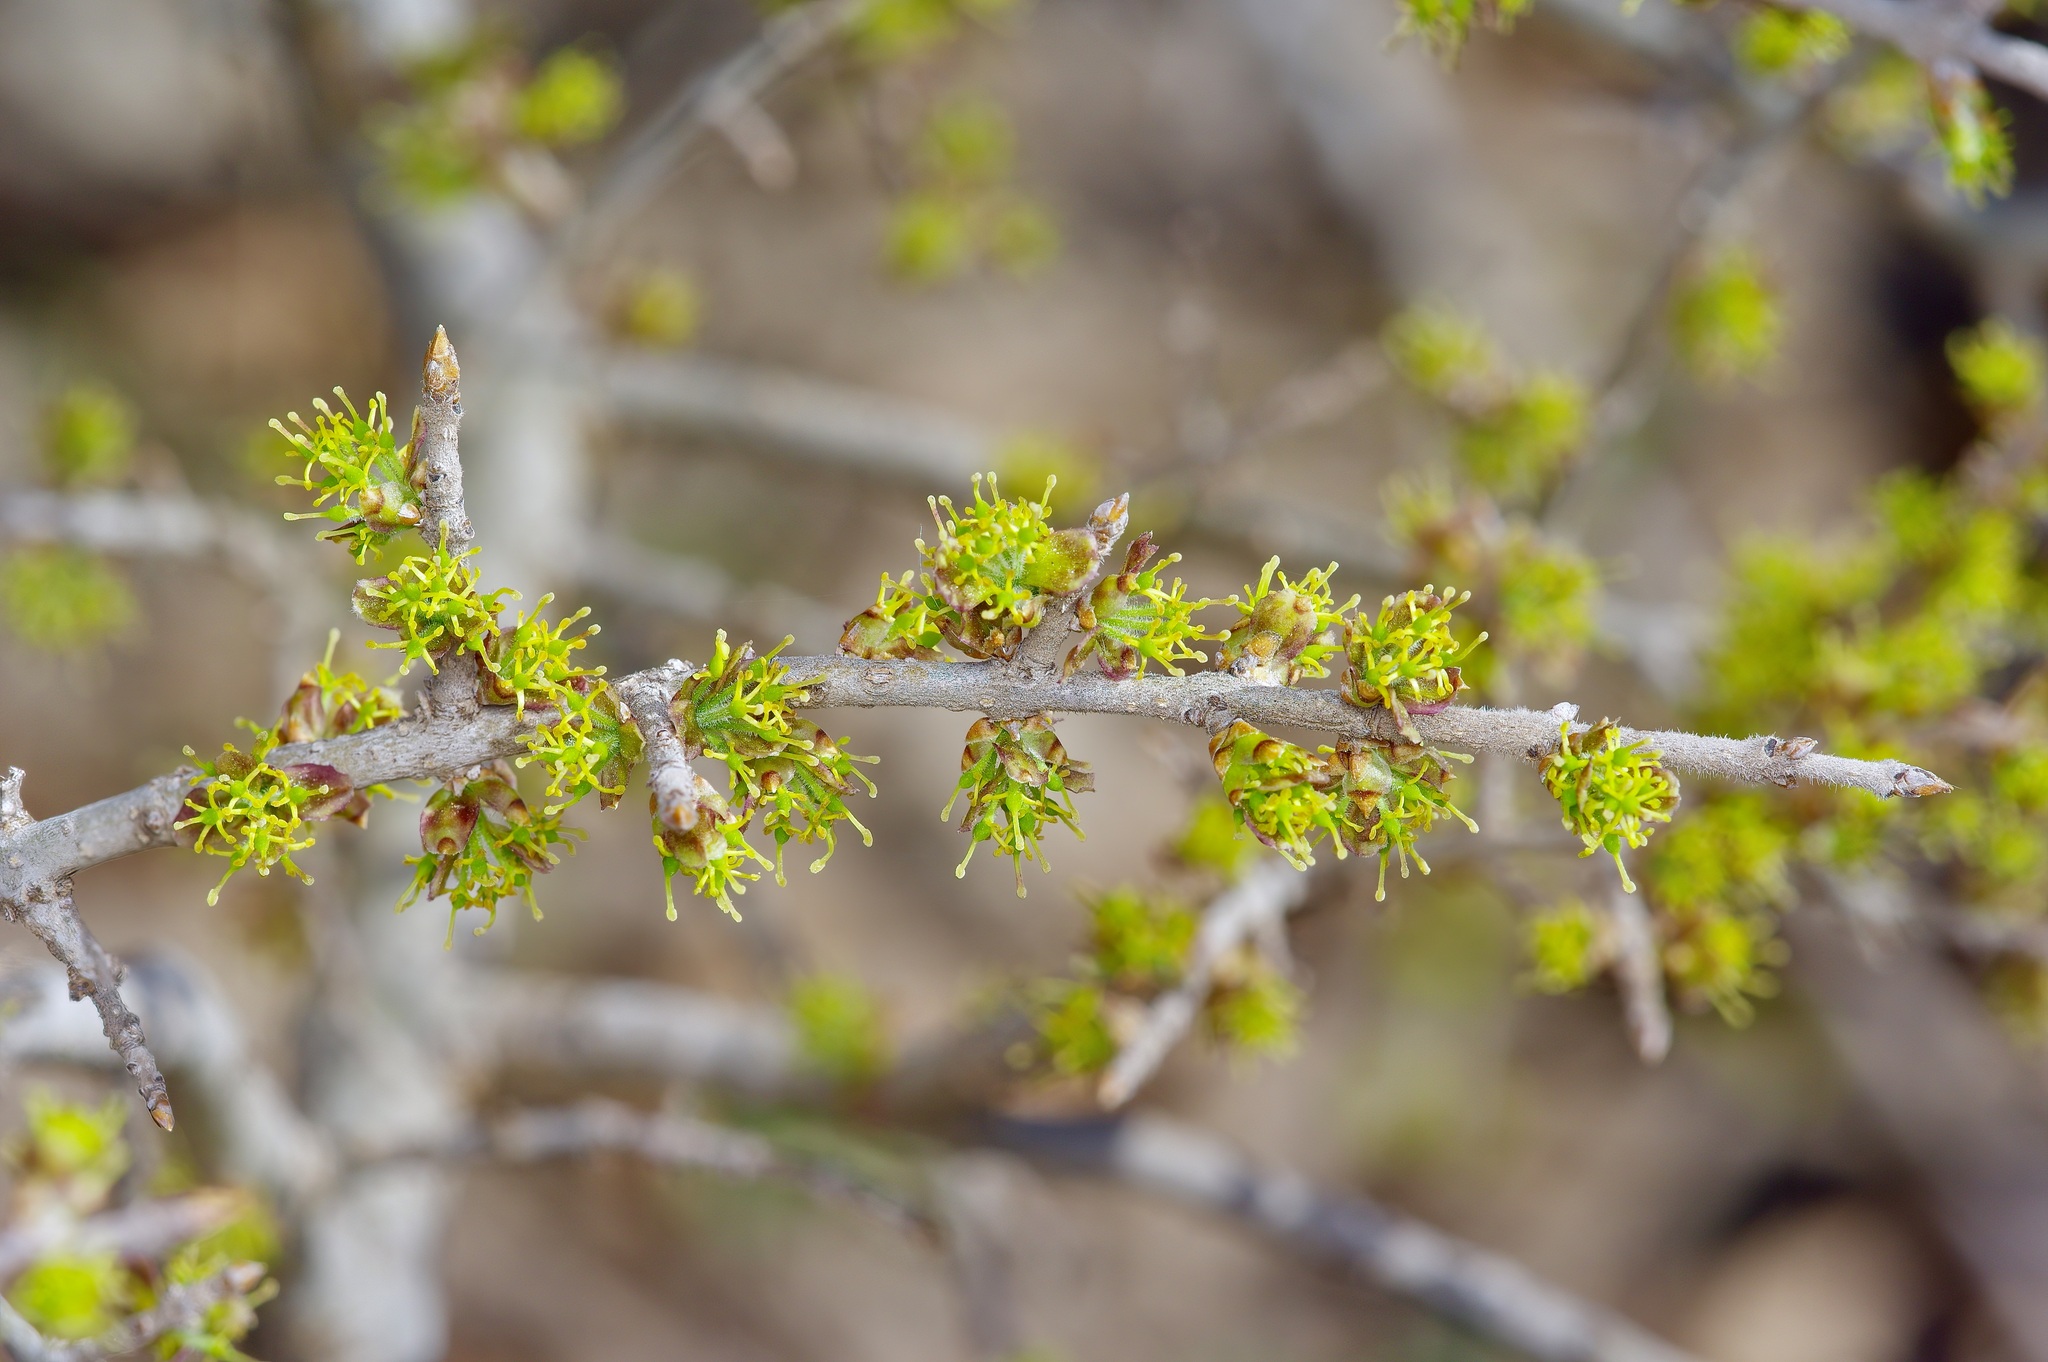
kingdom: Plantae
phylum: Tracheophyta
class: Magnoliopsida
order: Lamiales
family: Oleaceae
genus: Forestiera
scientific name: Forestiera pubescens
